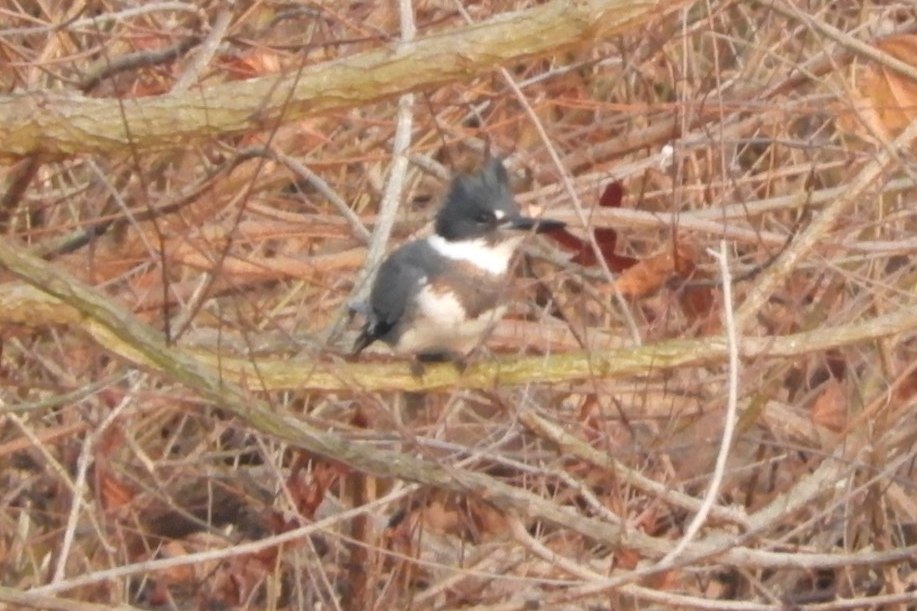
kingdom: Animalia
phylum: Chordata
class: Aves
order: Coraciiformes
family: Alcedinidae
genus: Megaceryle
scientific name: Megaceryle alcyon
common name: Belted kingfisher
